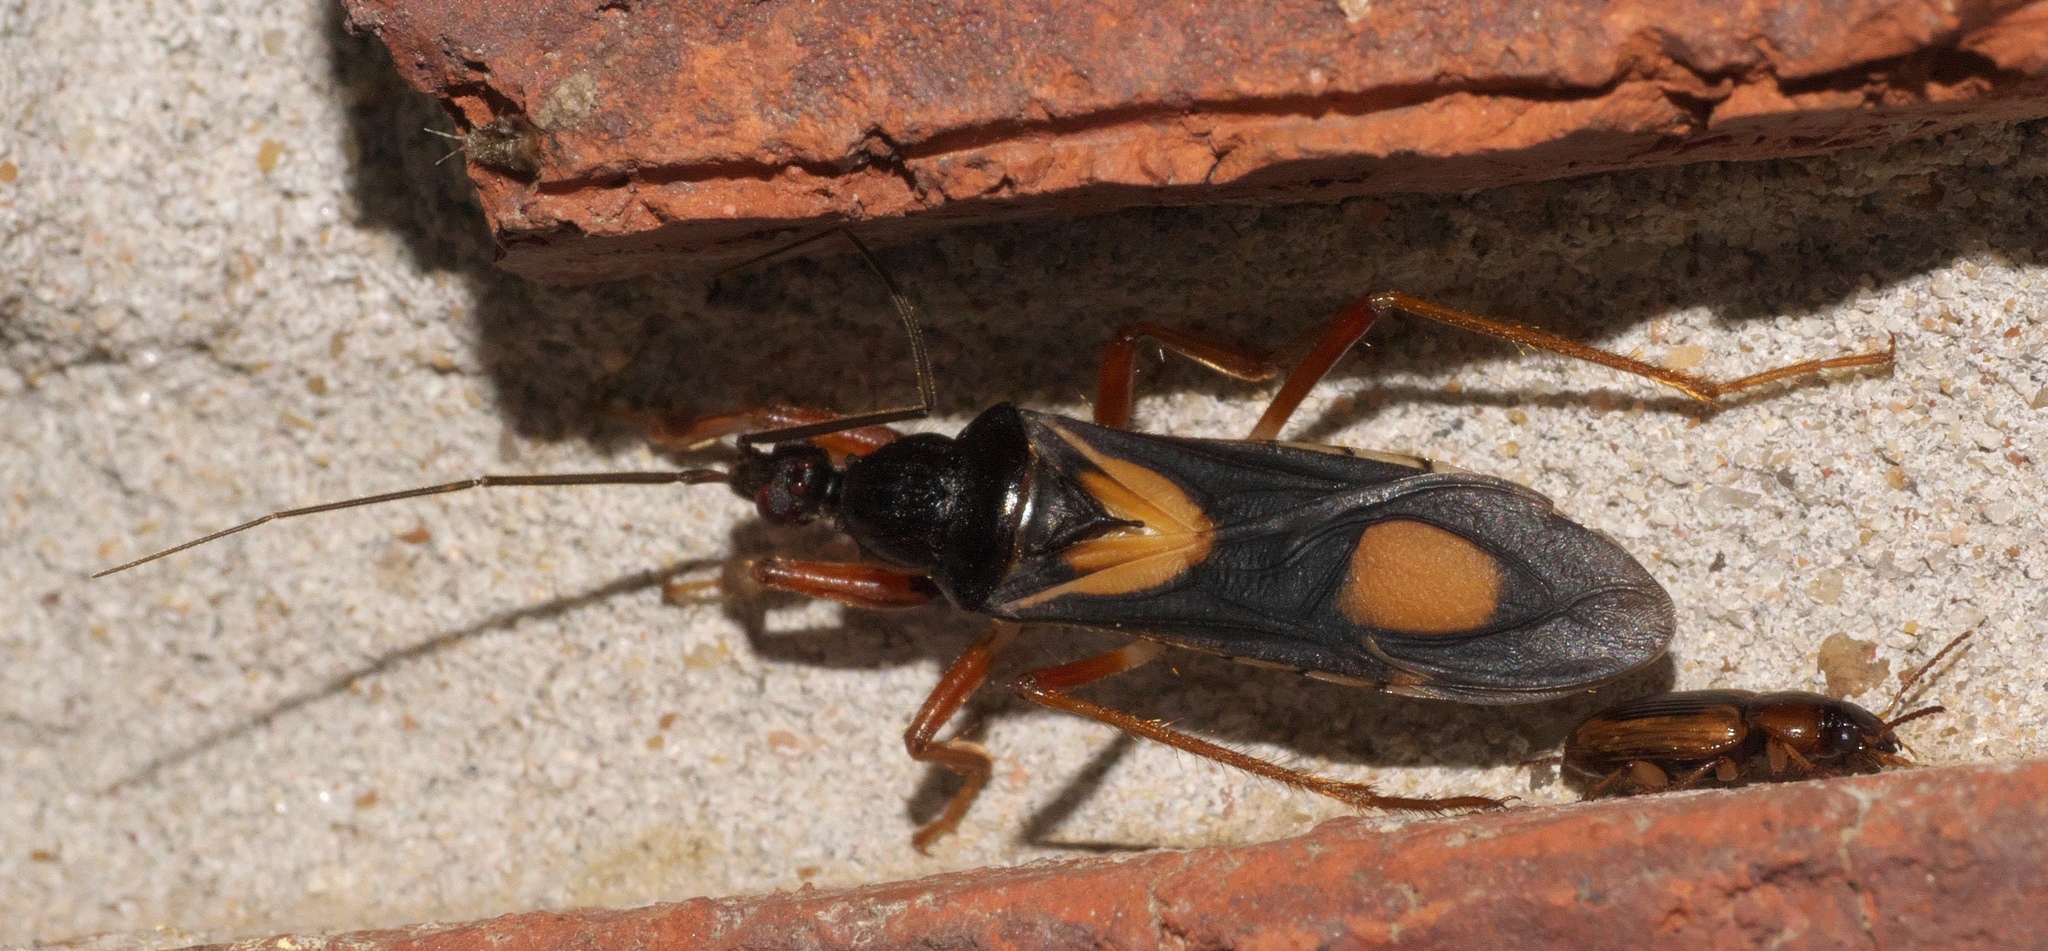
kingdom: Animalia
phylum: Arthropoda
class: Insecta
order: Hemiptera
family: Reduviidae
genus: Rasahus
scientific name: Rasahus hamatus
